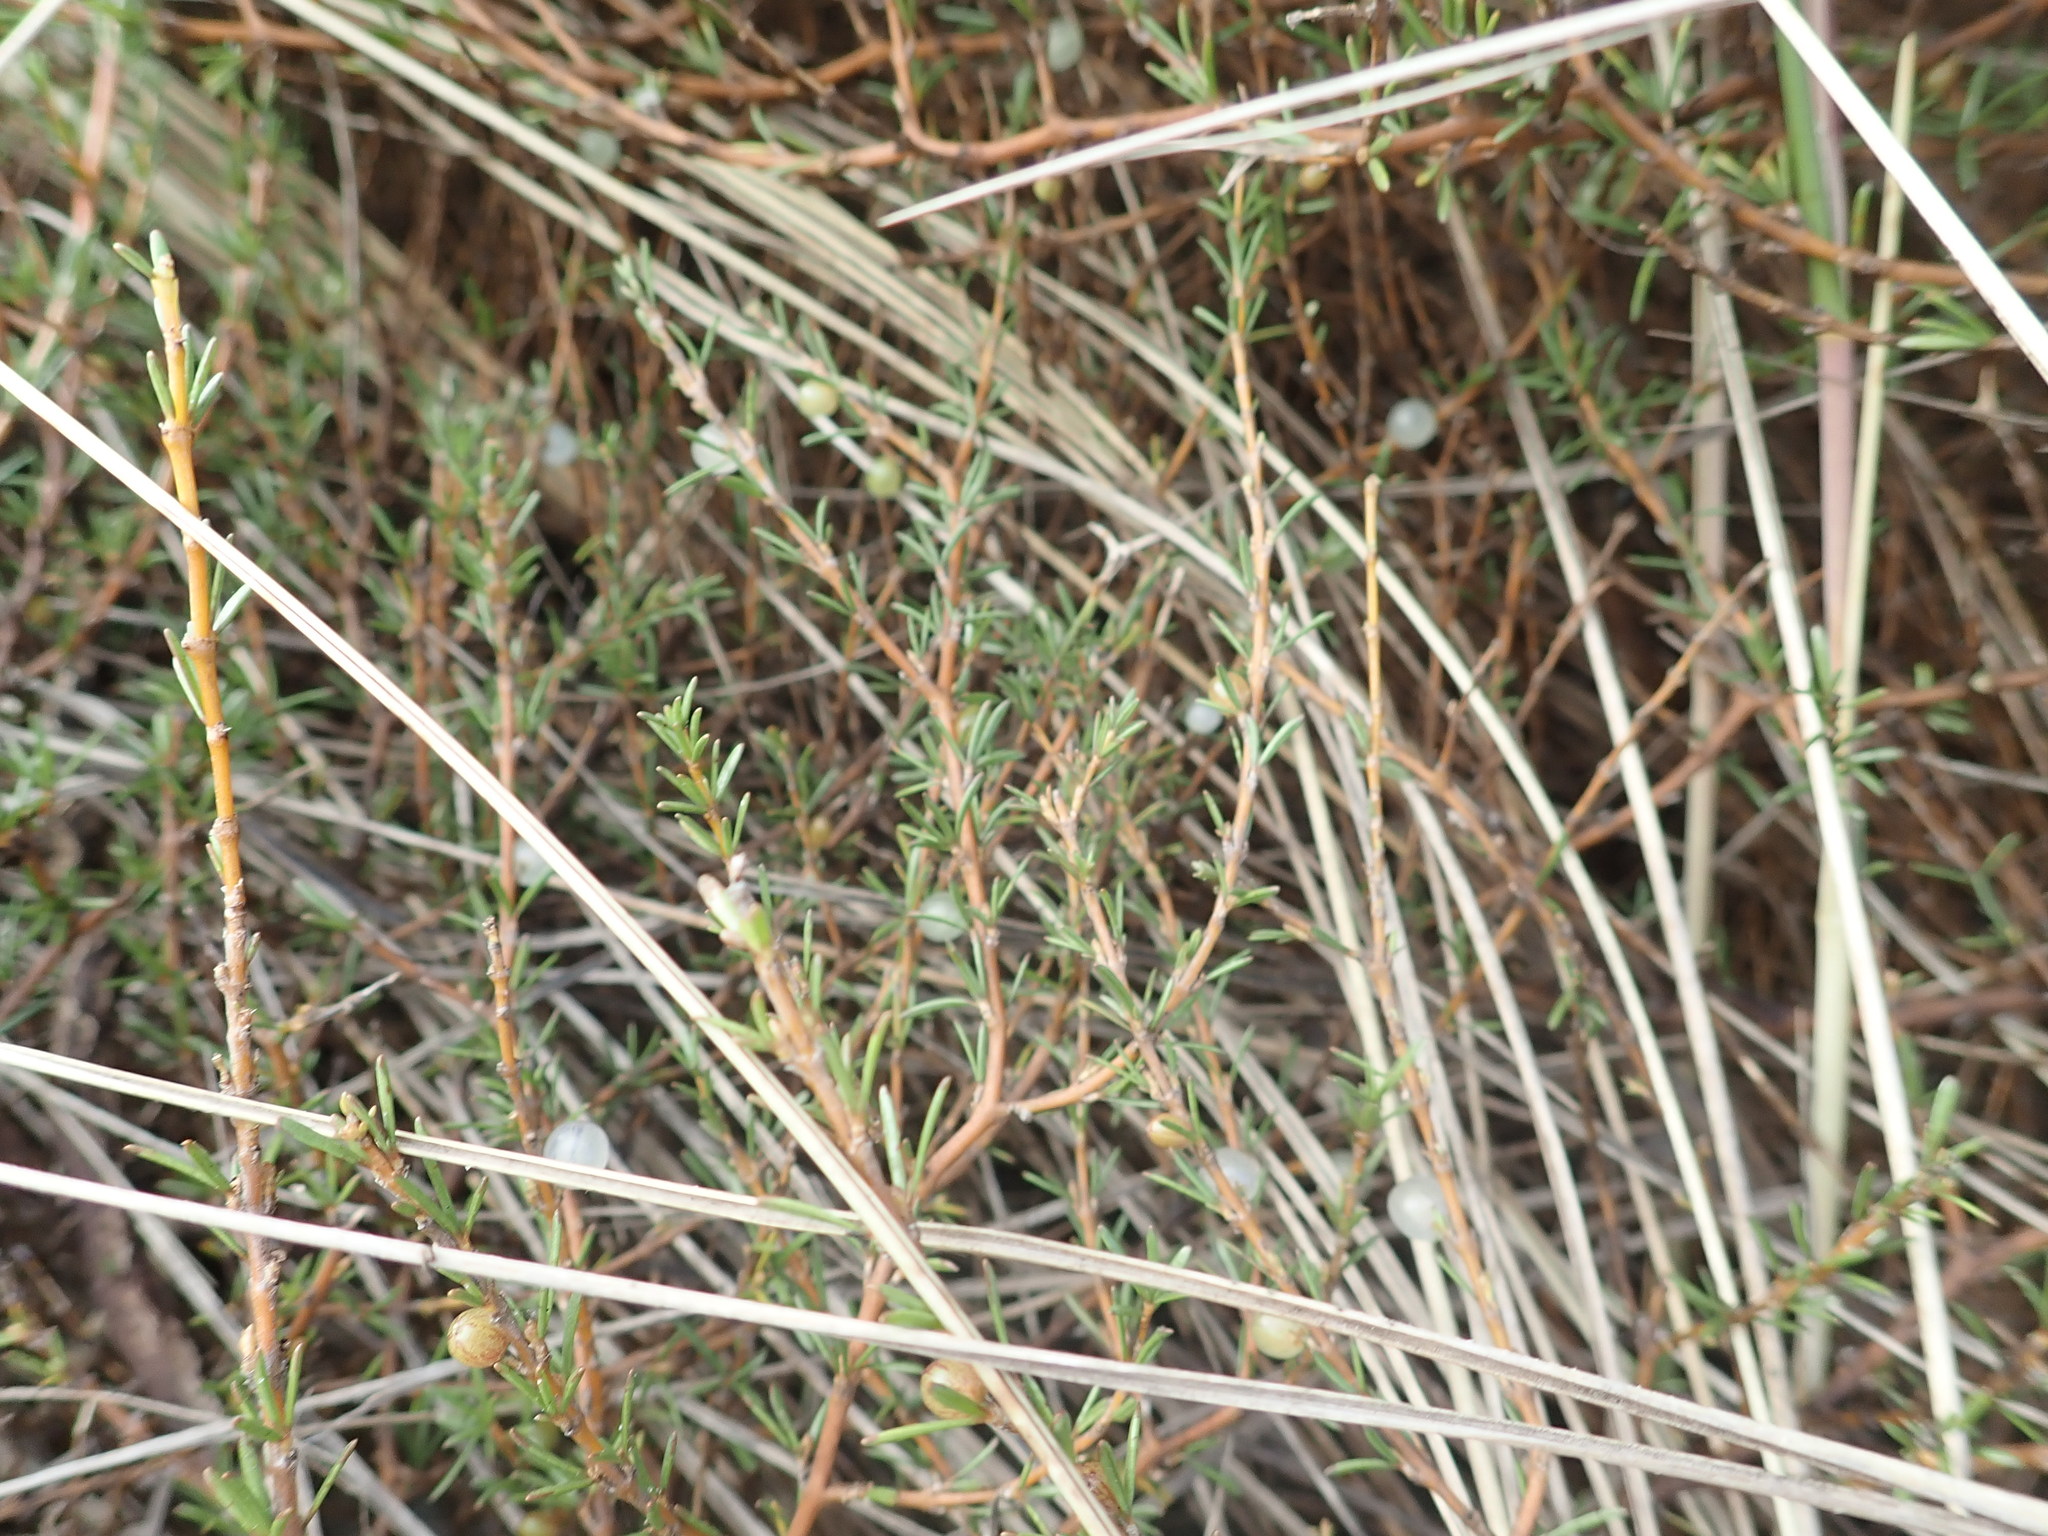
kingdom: Plantae
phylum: Tracheophyta
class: Magnoliopsida
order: Gentianales
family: Rubiaceae
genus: Coprosma
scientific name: Coprosma acerosa
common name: Sand coprosma
